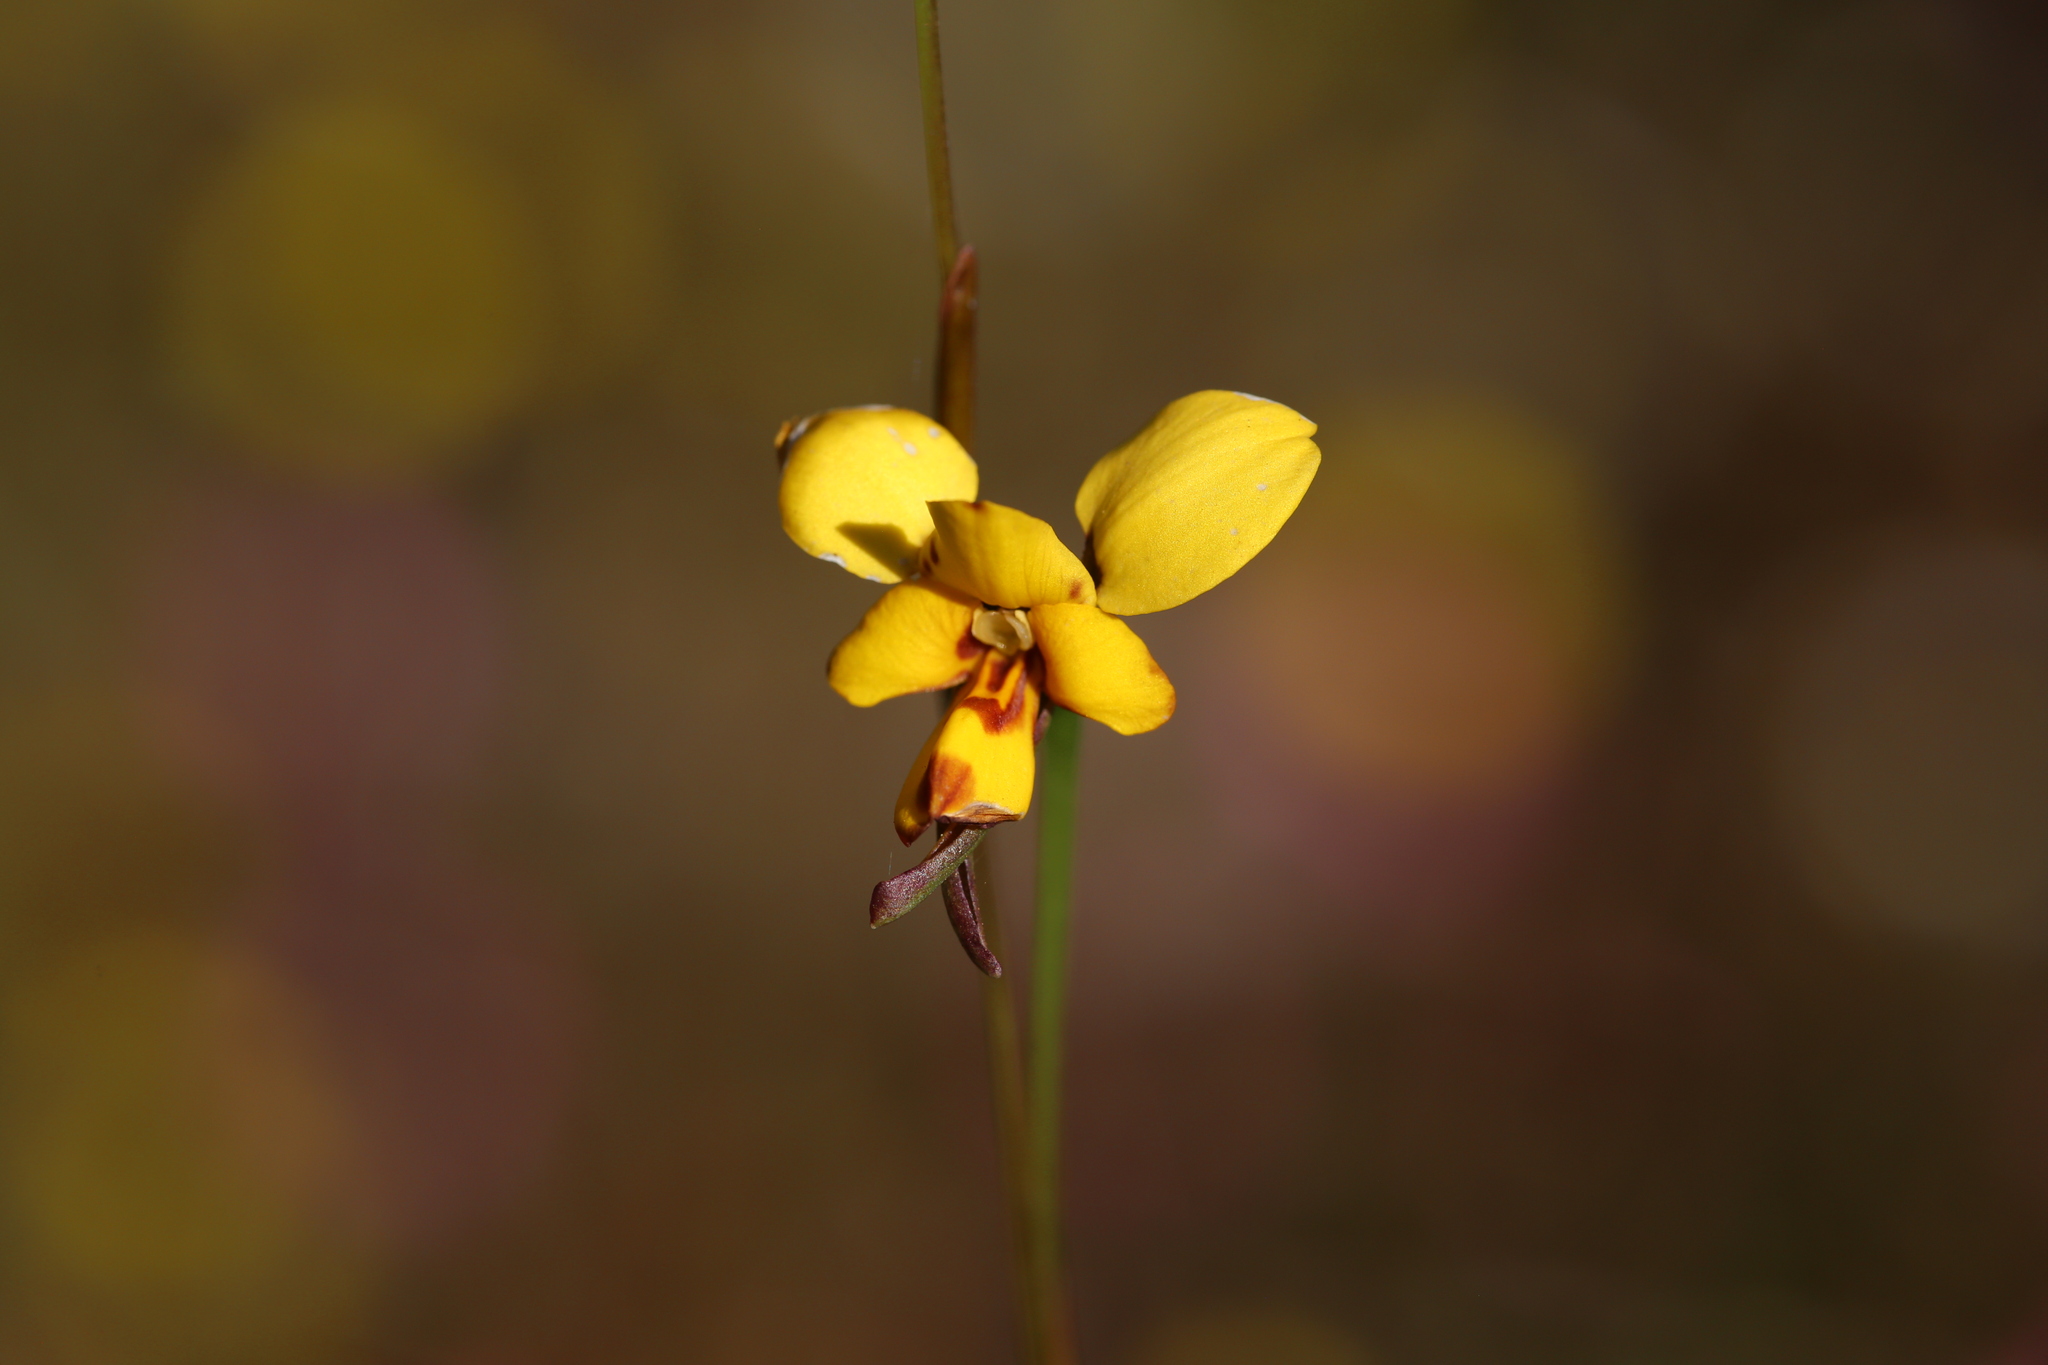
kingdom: Plantae
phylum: Tracheophyta
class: Liliopsida
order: Asparagales
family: Orchidaceae
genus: Diuris
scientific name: Diuris laxiflora
